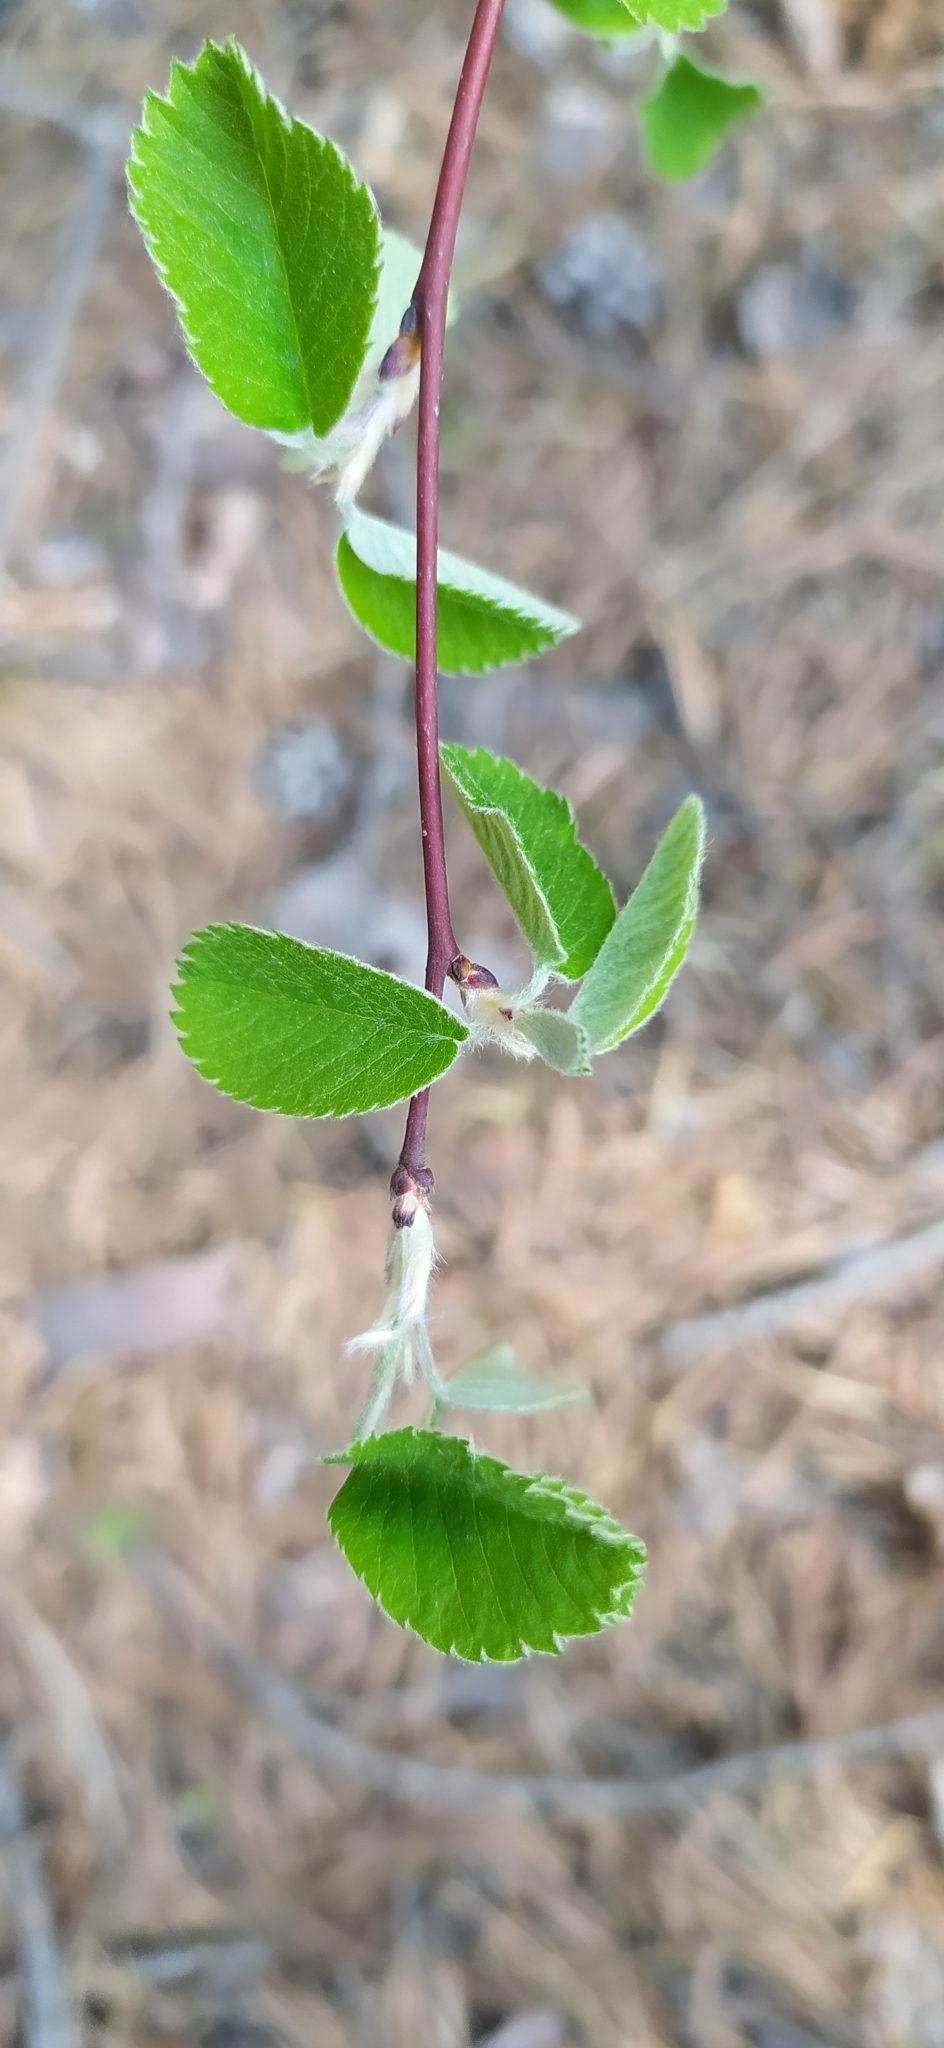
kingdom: Plantae
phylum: Tracheophyta
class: Magnoliopsida
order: Rosales
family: Rosaceae
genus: Amelanchier
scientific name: Amelanchier alnifolia
